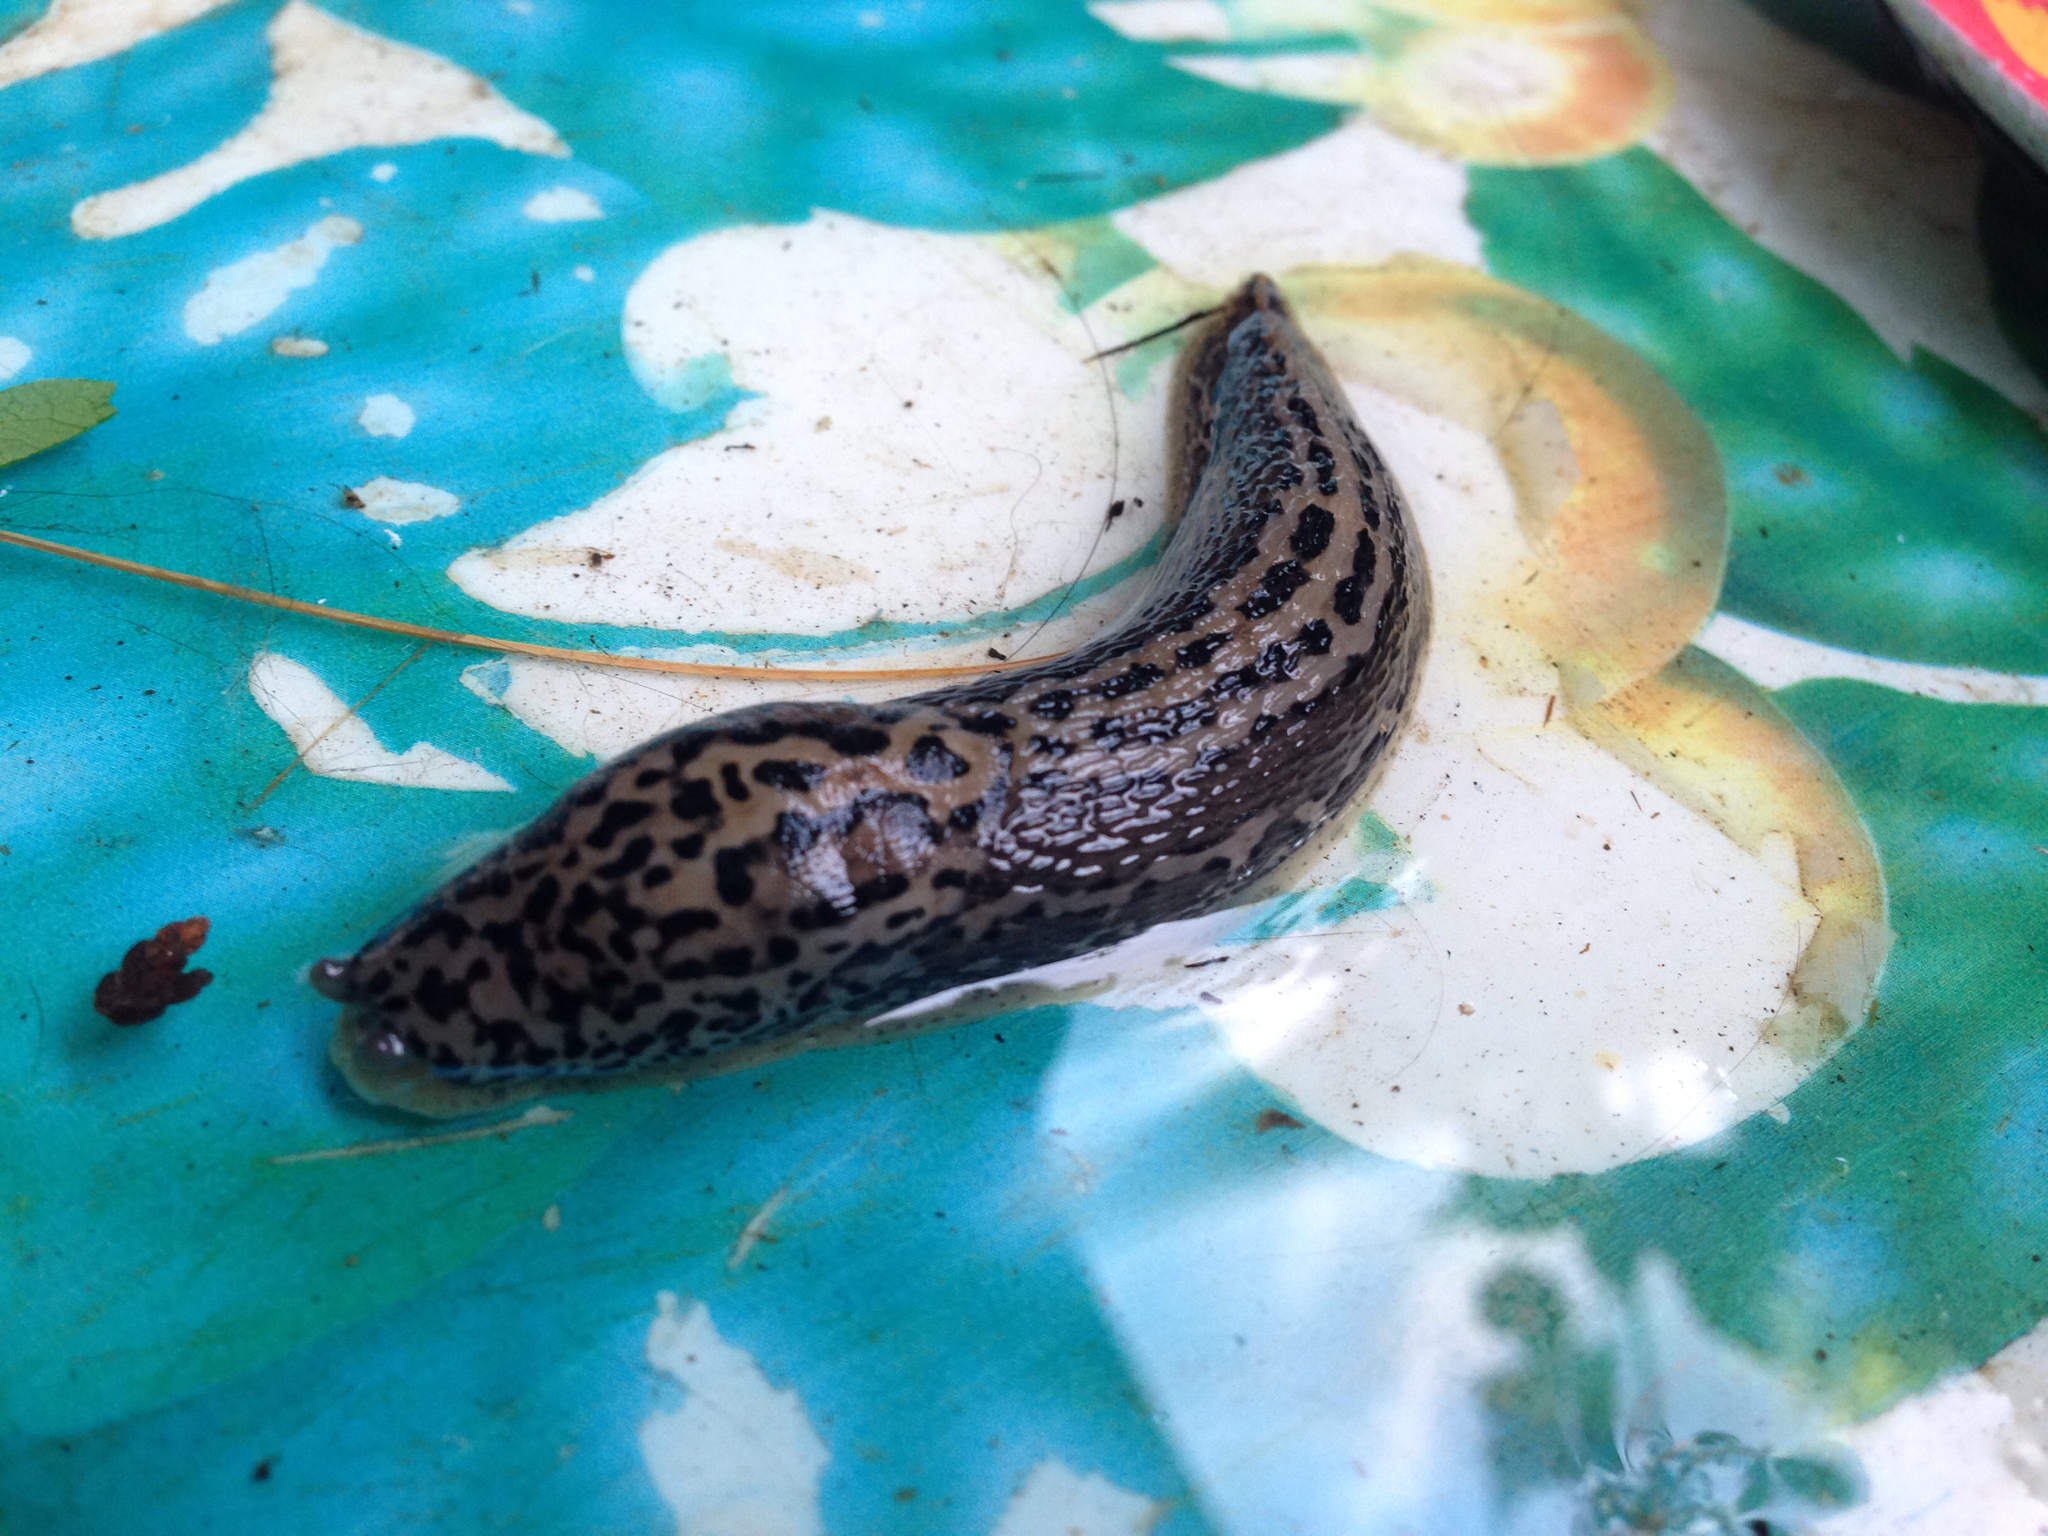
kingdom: Animalia
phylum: Mollusca
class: Gastropoda
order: Stylommatophora
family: Limacidae
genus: Limax
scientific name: Limax maximus
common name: Great grey slug
